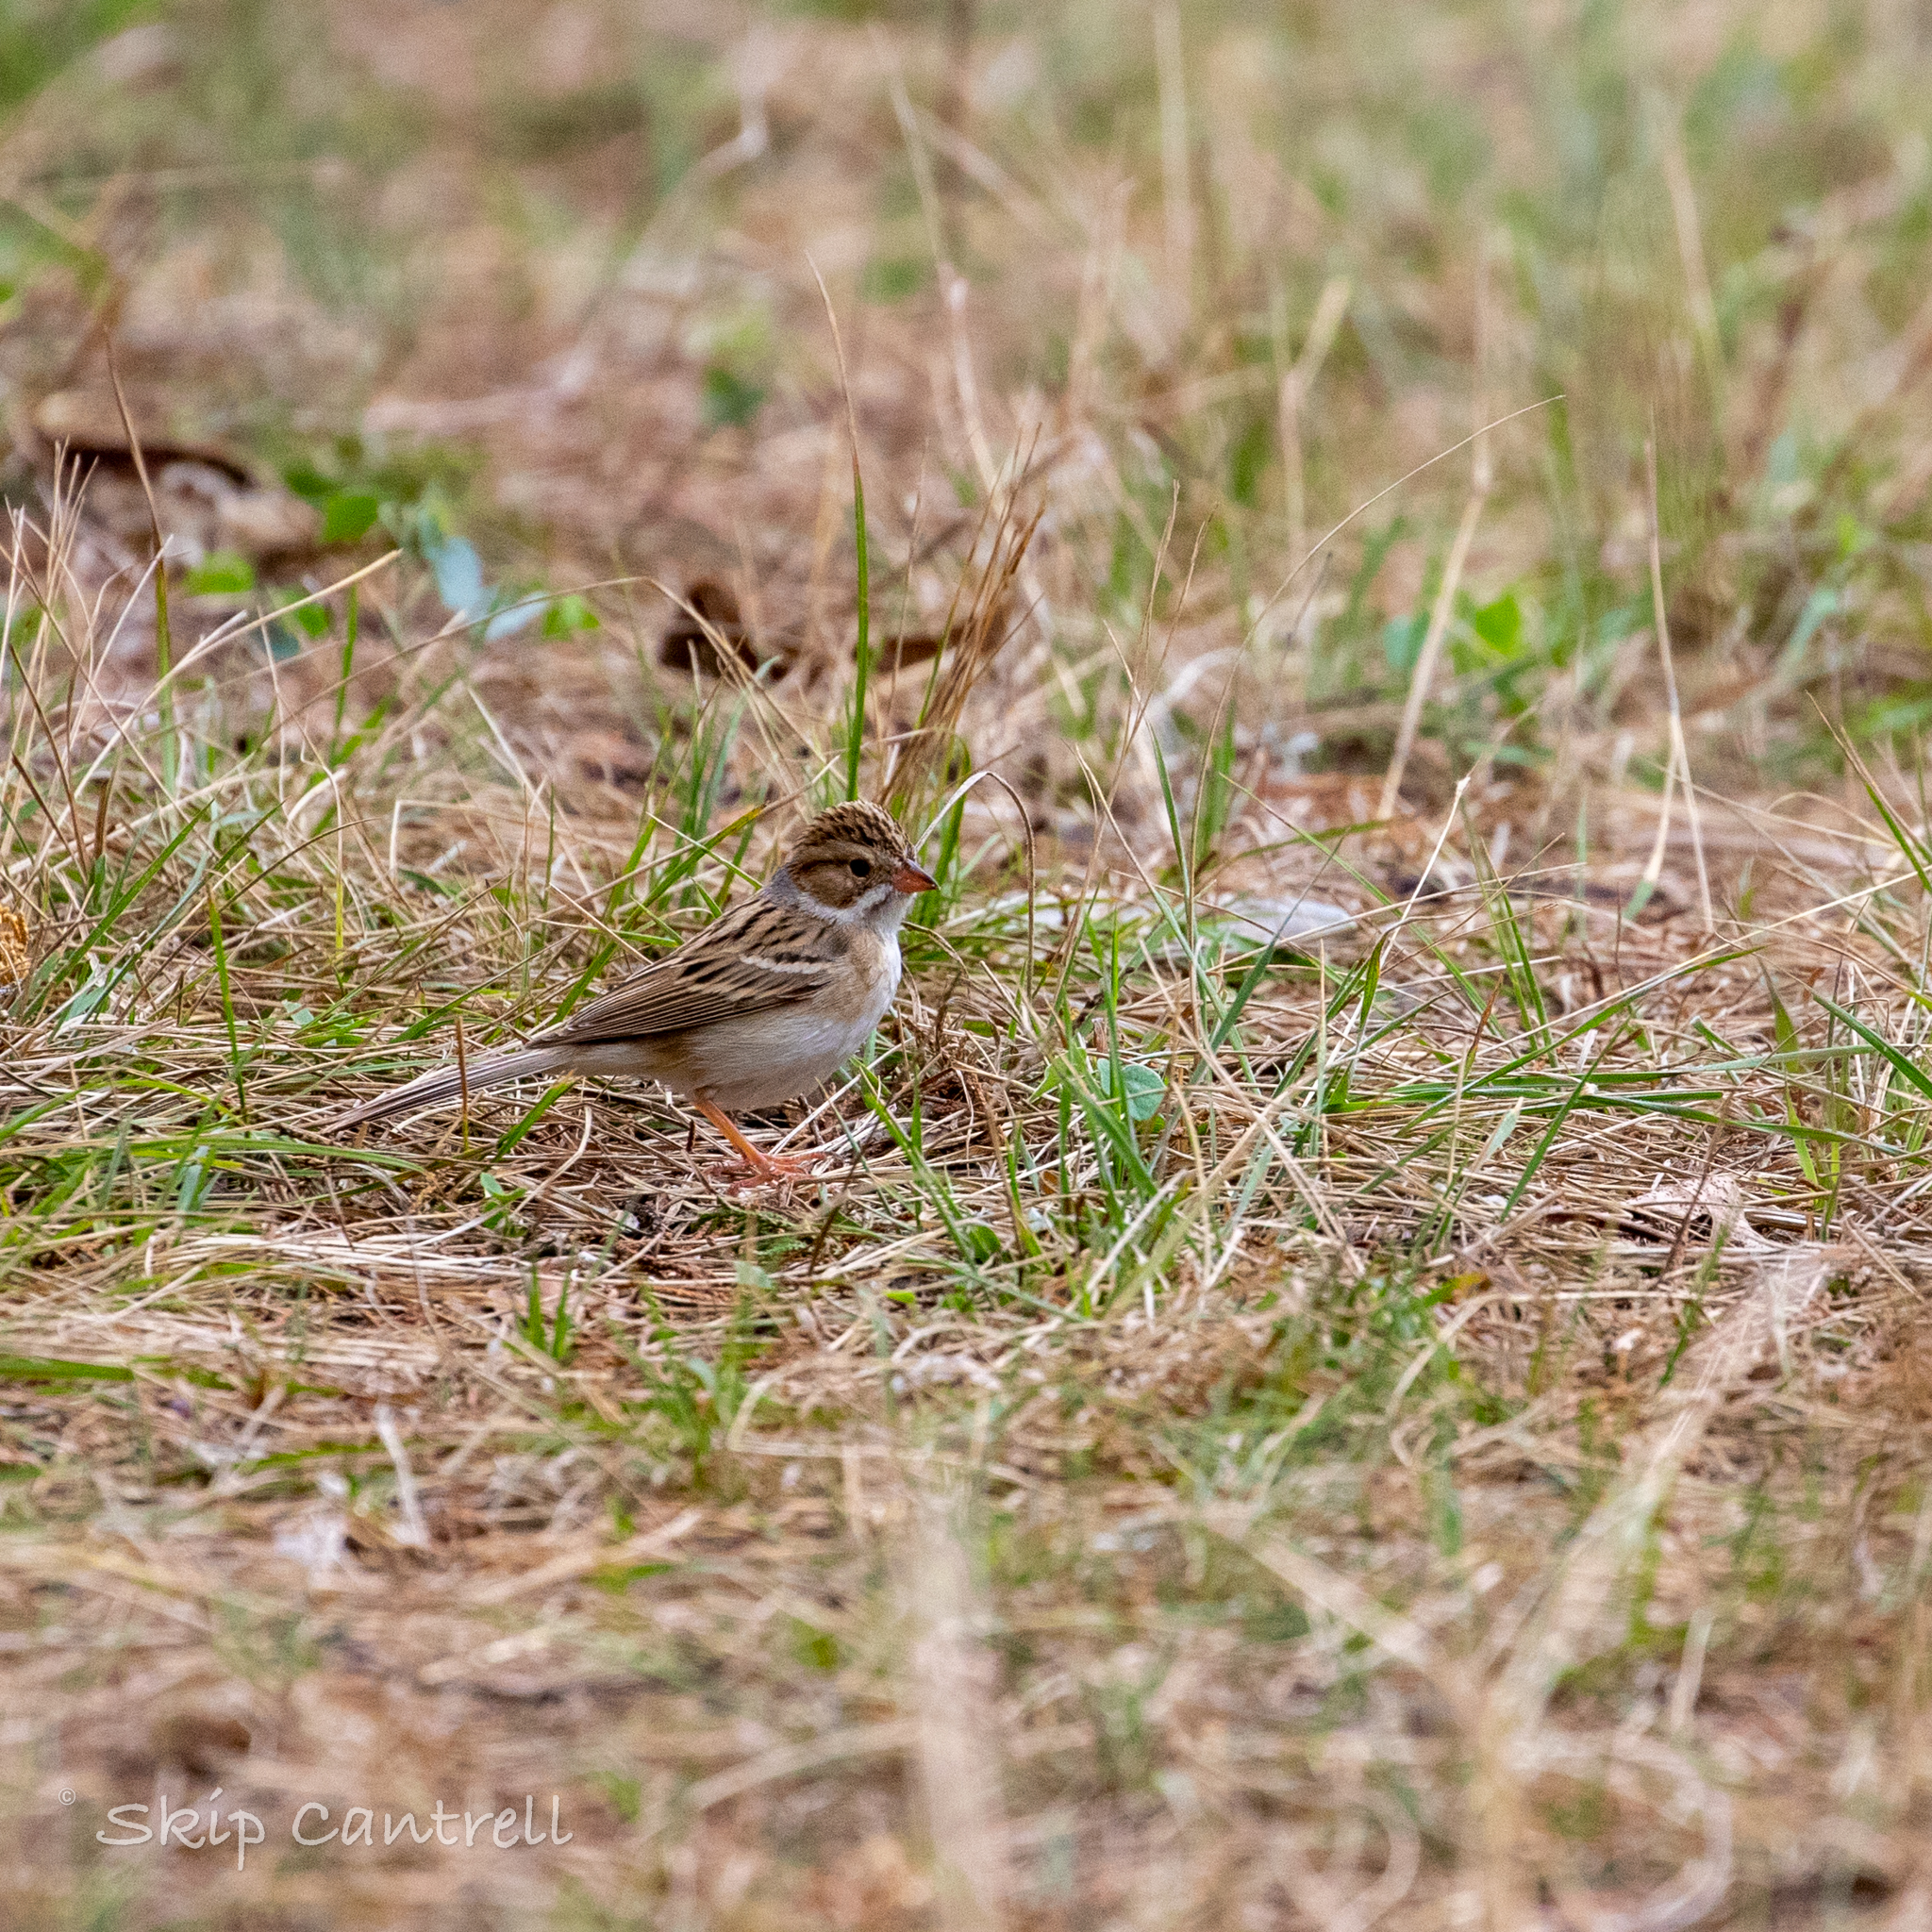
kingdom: Animalia
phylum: Chordata
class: Aves
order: Passeriformes
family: Passerellidae
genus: Spizella
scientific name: Spizella pallida
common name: Clay-colored sparrow
